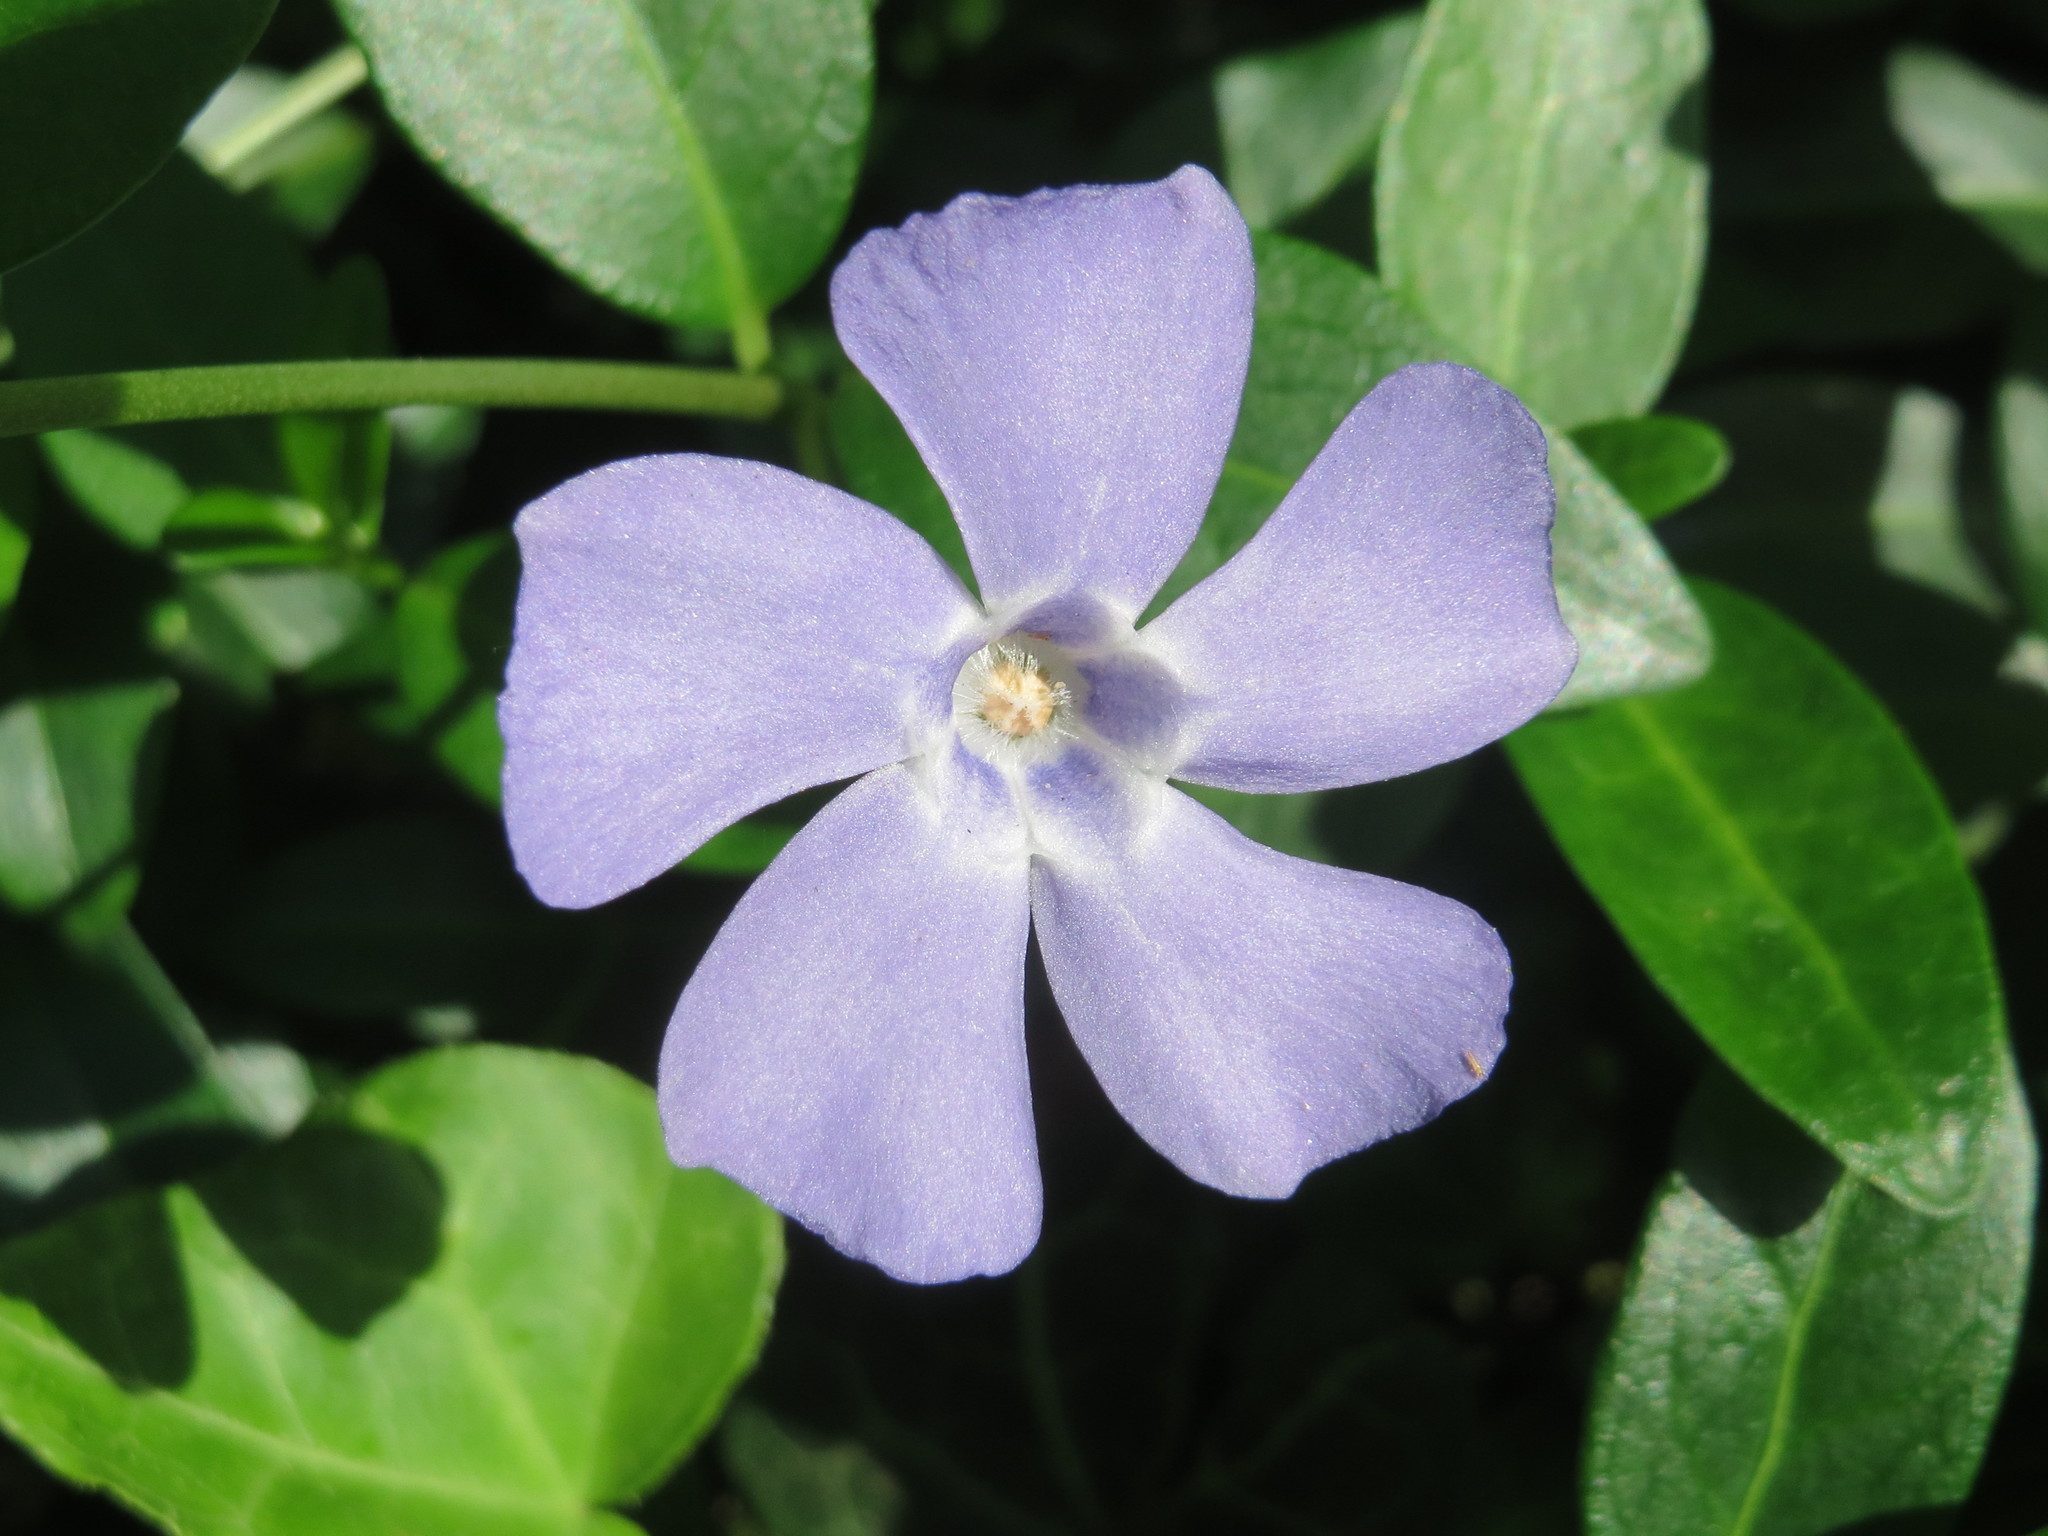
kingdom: Plantae
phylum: Tracheophyta
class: Magnoliopsida
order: Gentianales
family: Apocynaceae
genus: Vinca
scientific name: Vinca minor
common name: Lesser periwinkle
